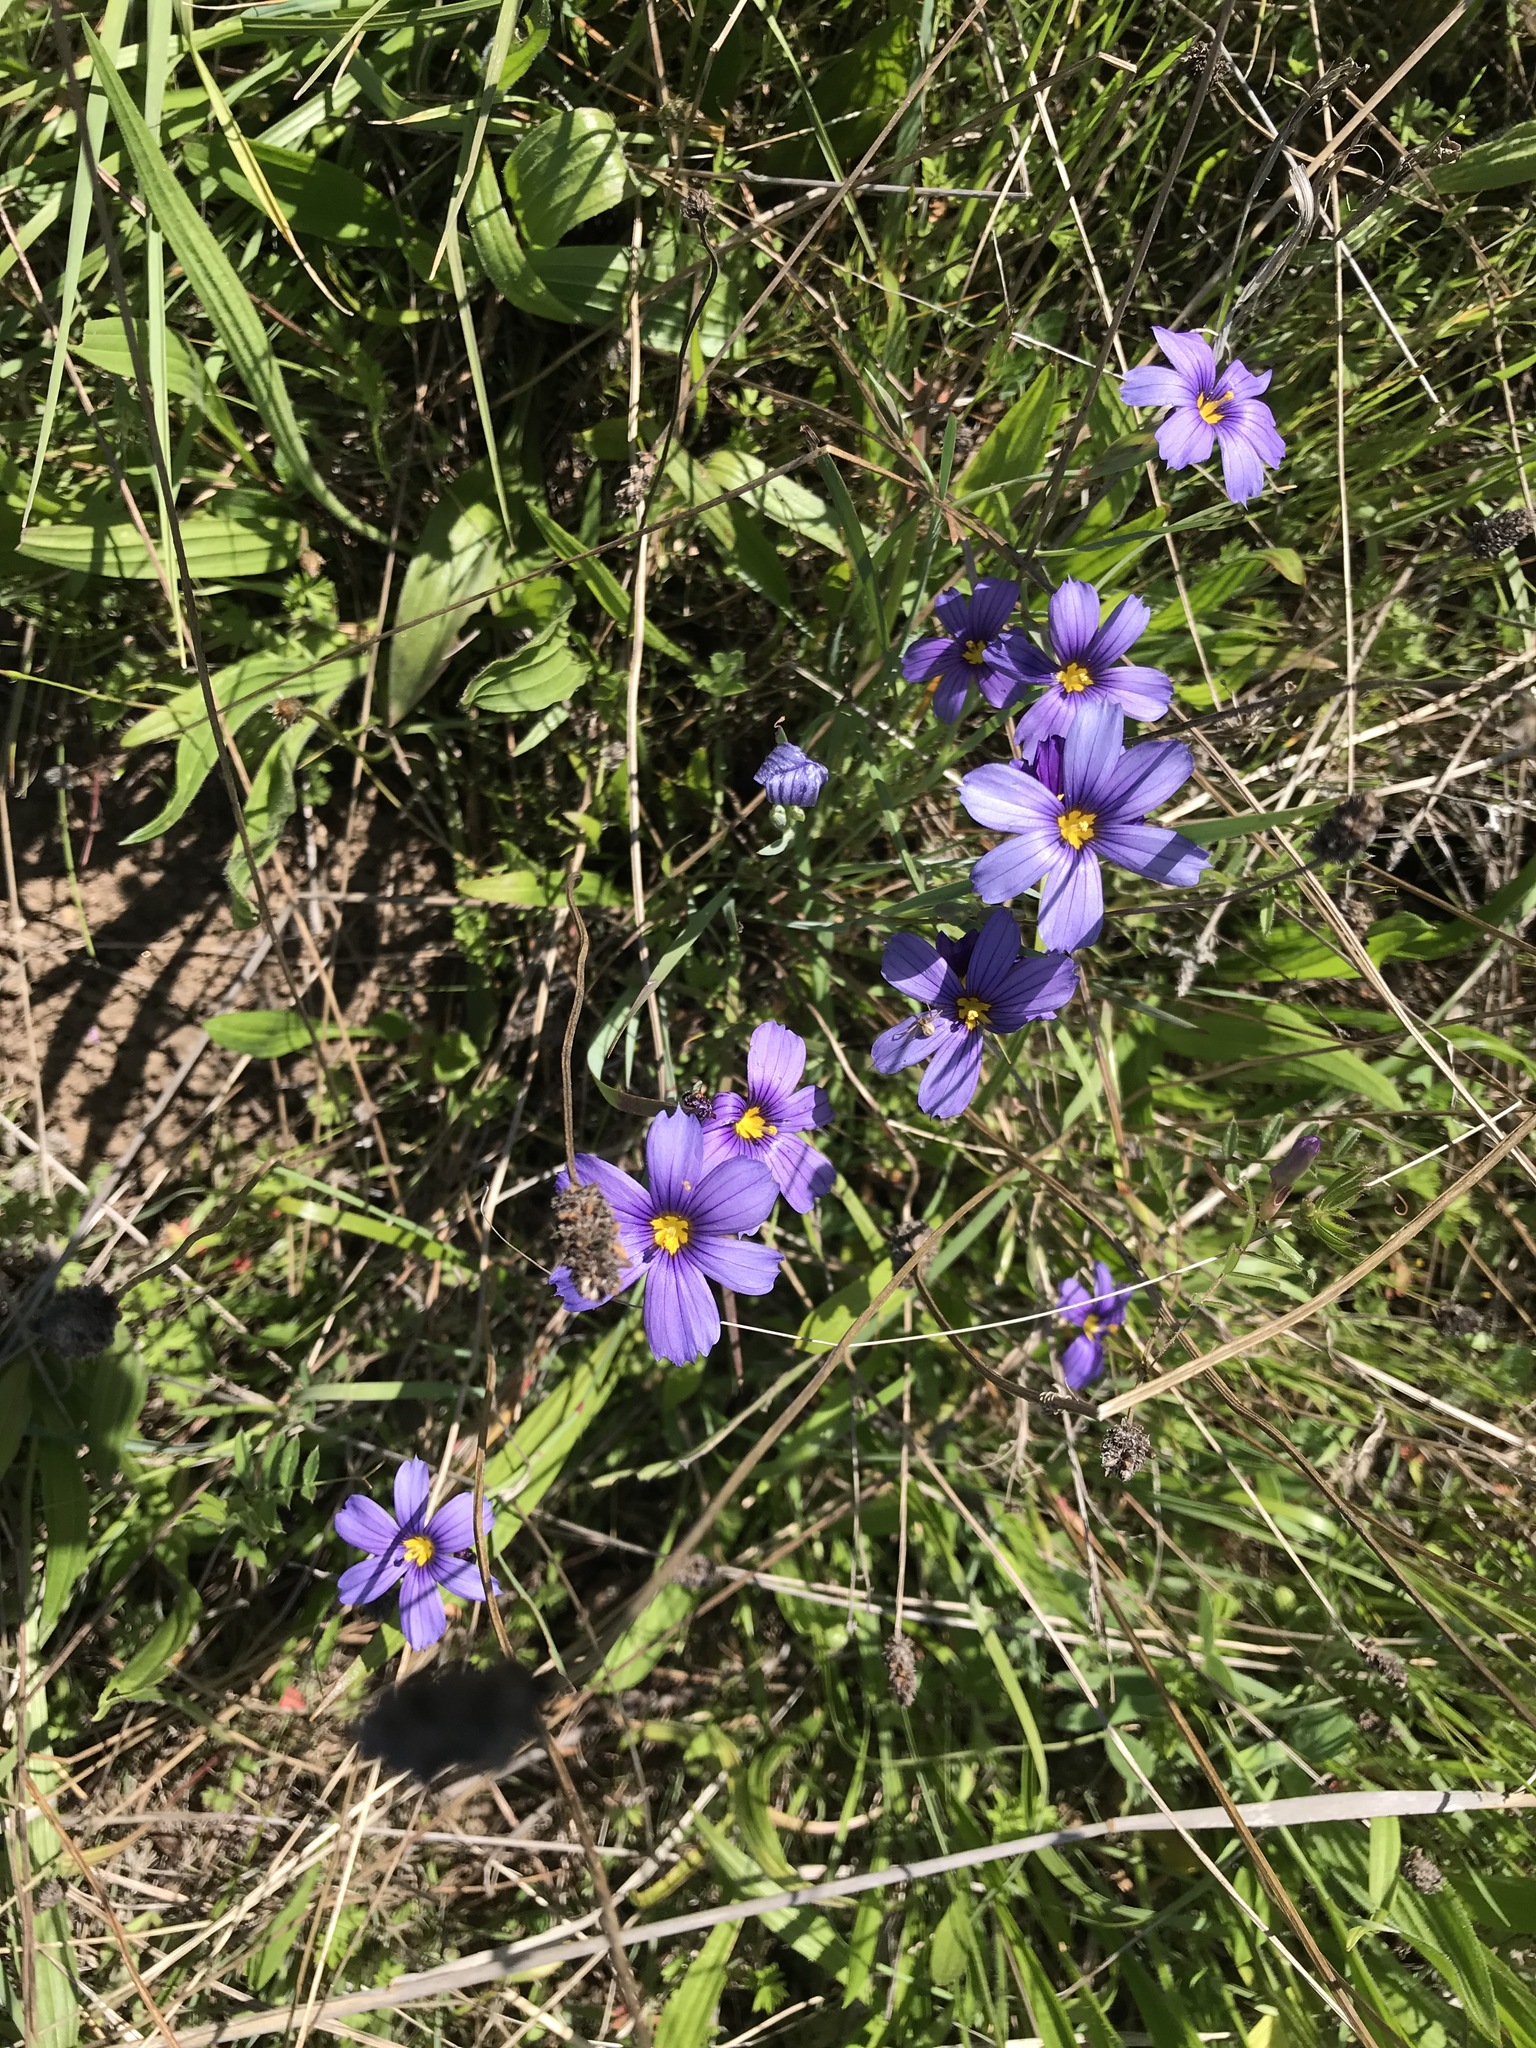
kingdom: Plantae
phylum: Tracheophyta
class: Liliopsida
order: Asparagales
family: Iridaceae
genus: Sisyrinchium
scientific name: Sisyrinchium bellum
